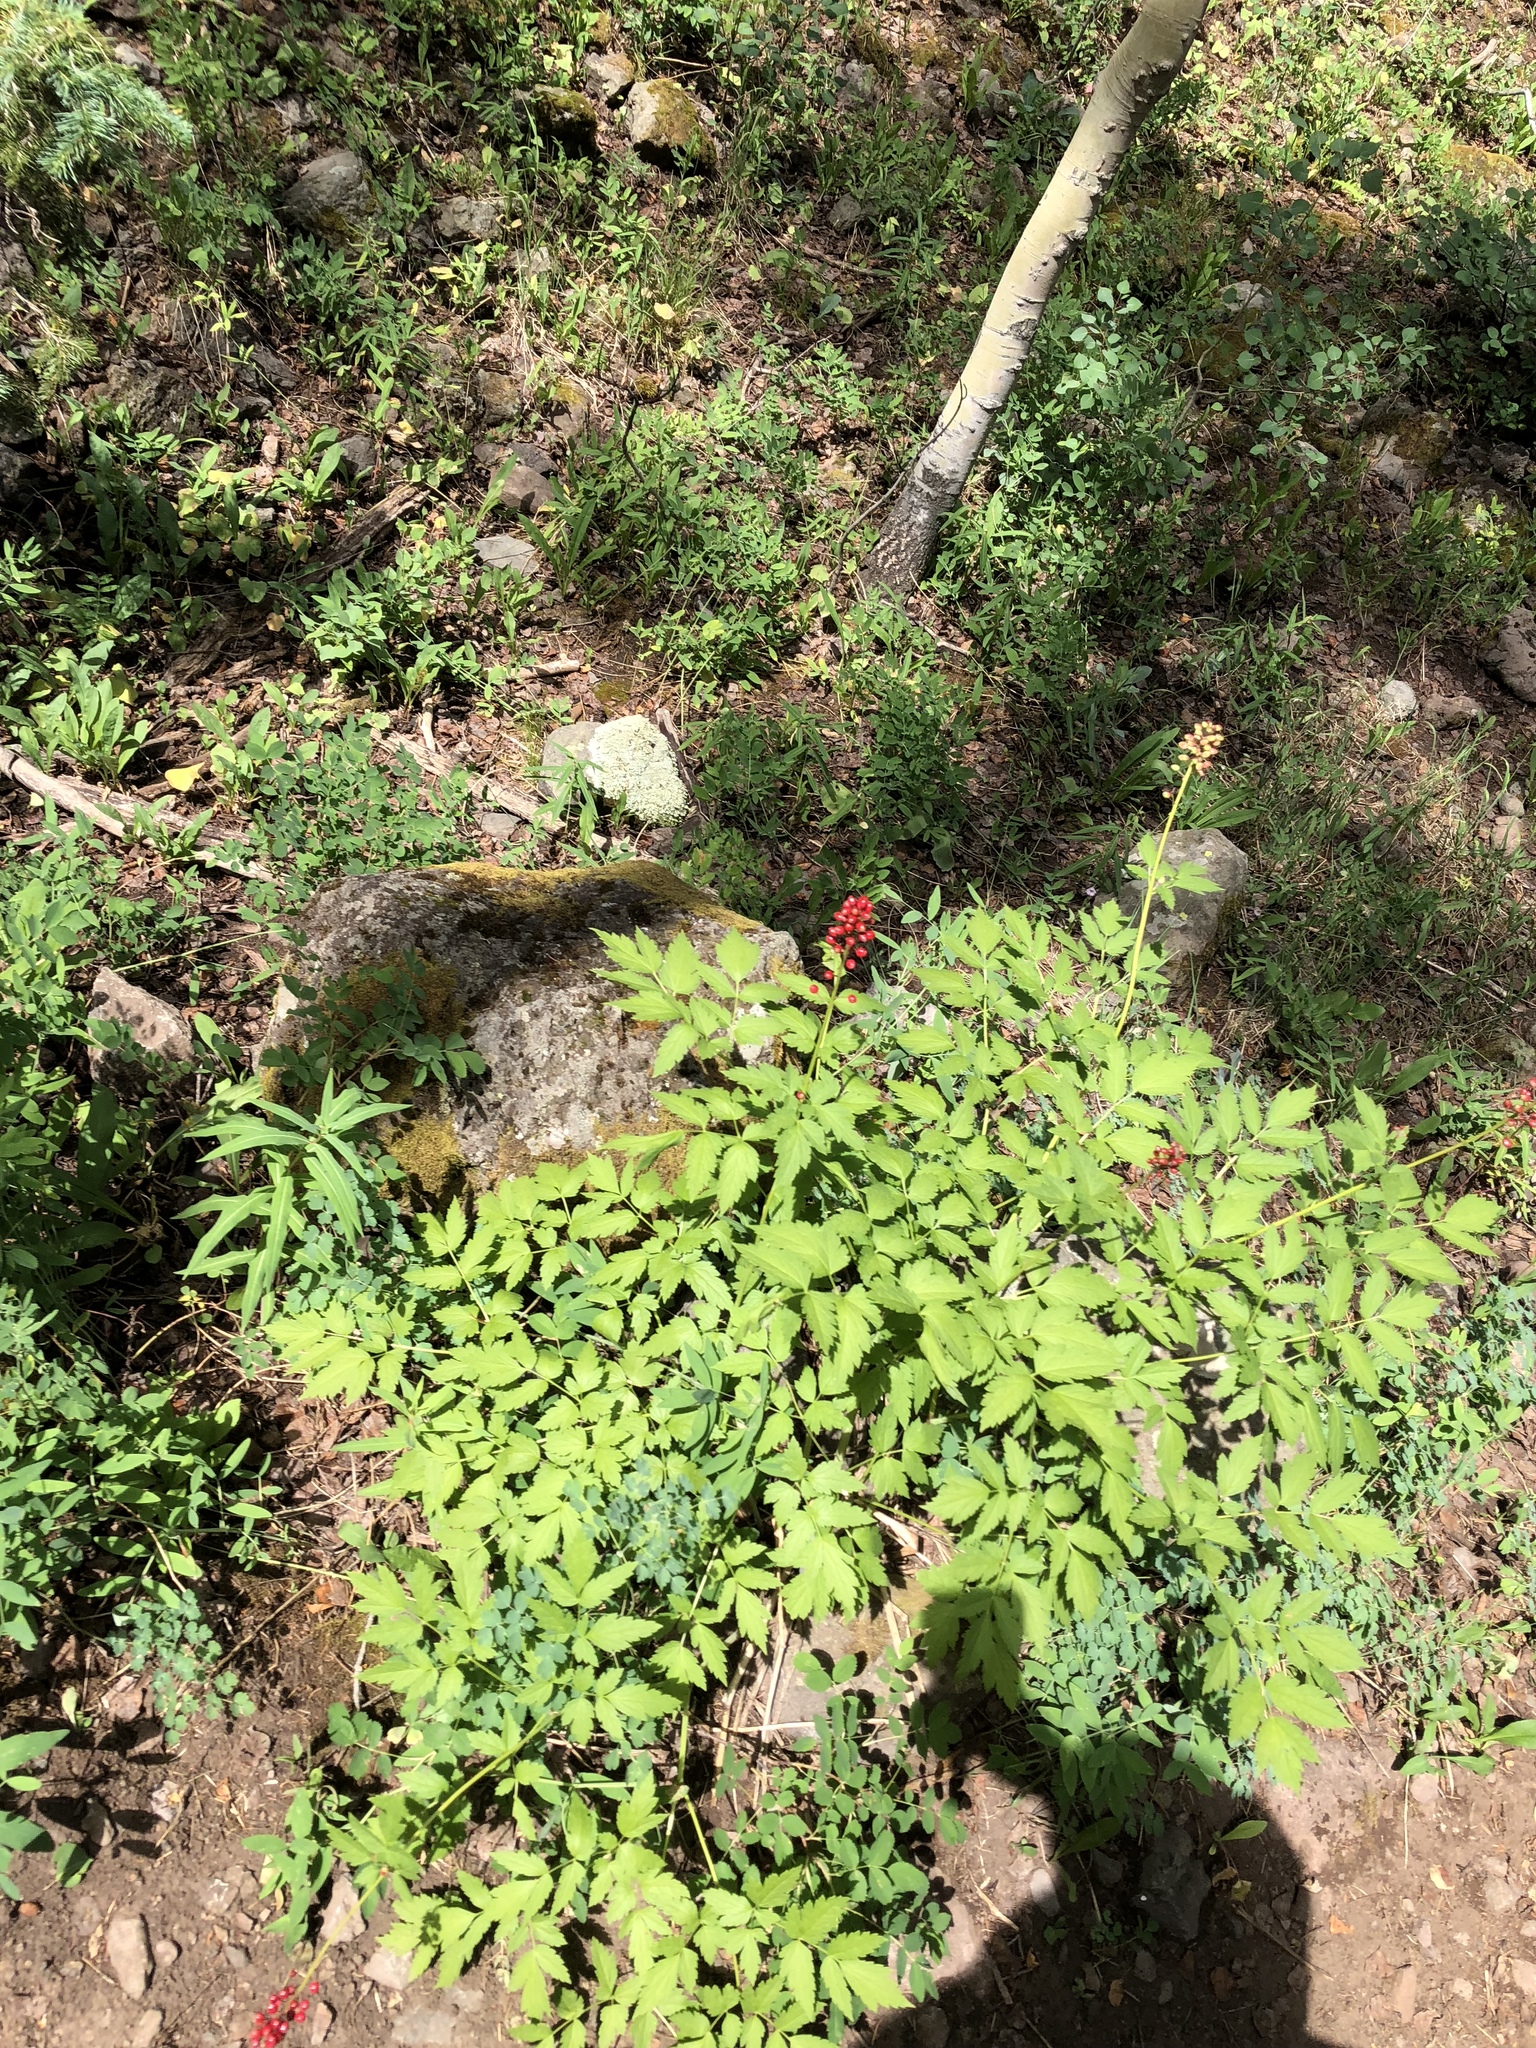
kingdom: Plantae
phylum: Tracheophyta
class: Magnoliopsida
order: Ranunculales
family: Ranunculaceae
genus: Actaea
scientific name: Actaea rubra
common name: Red baneberry
